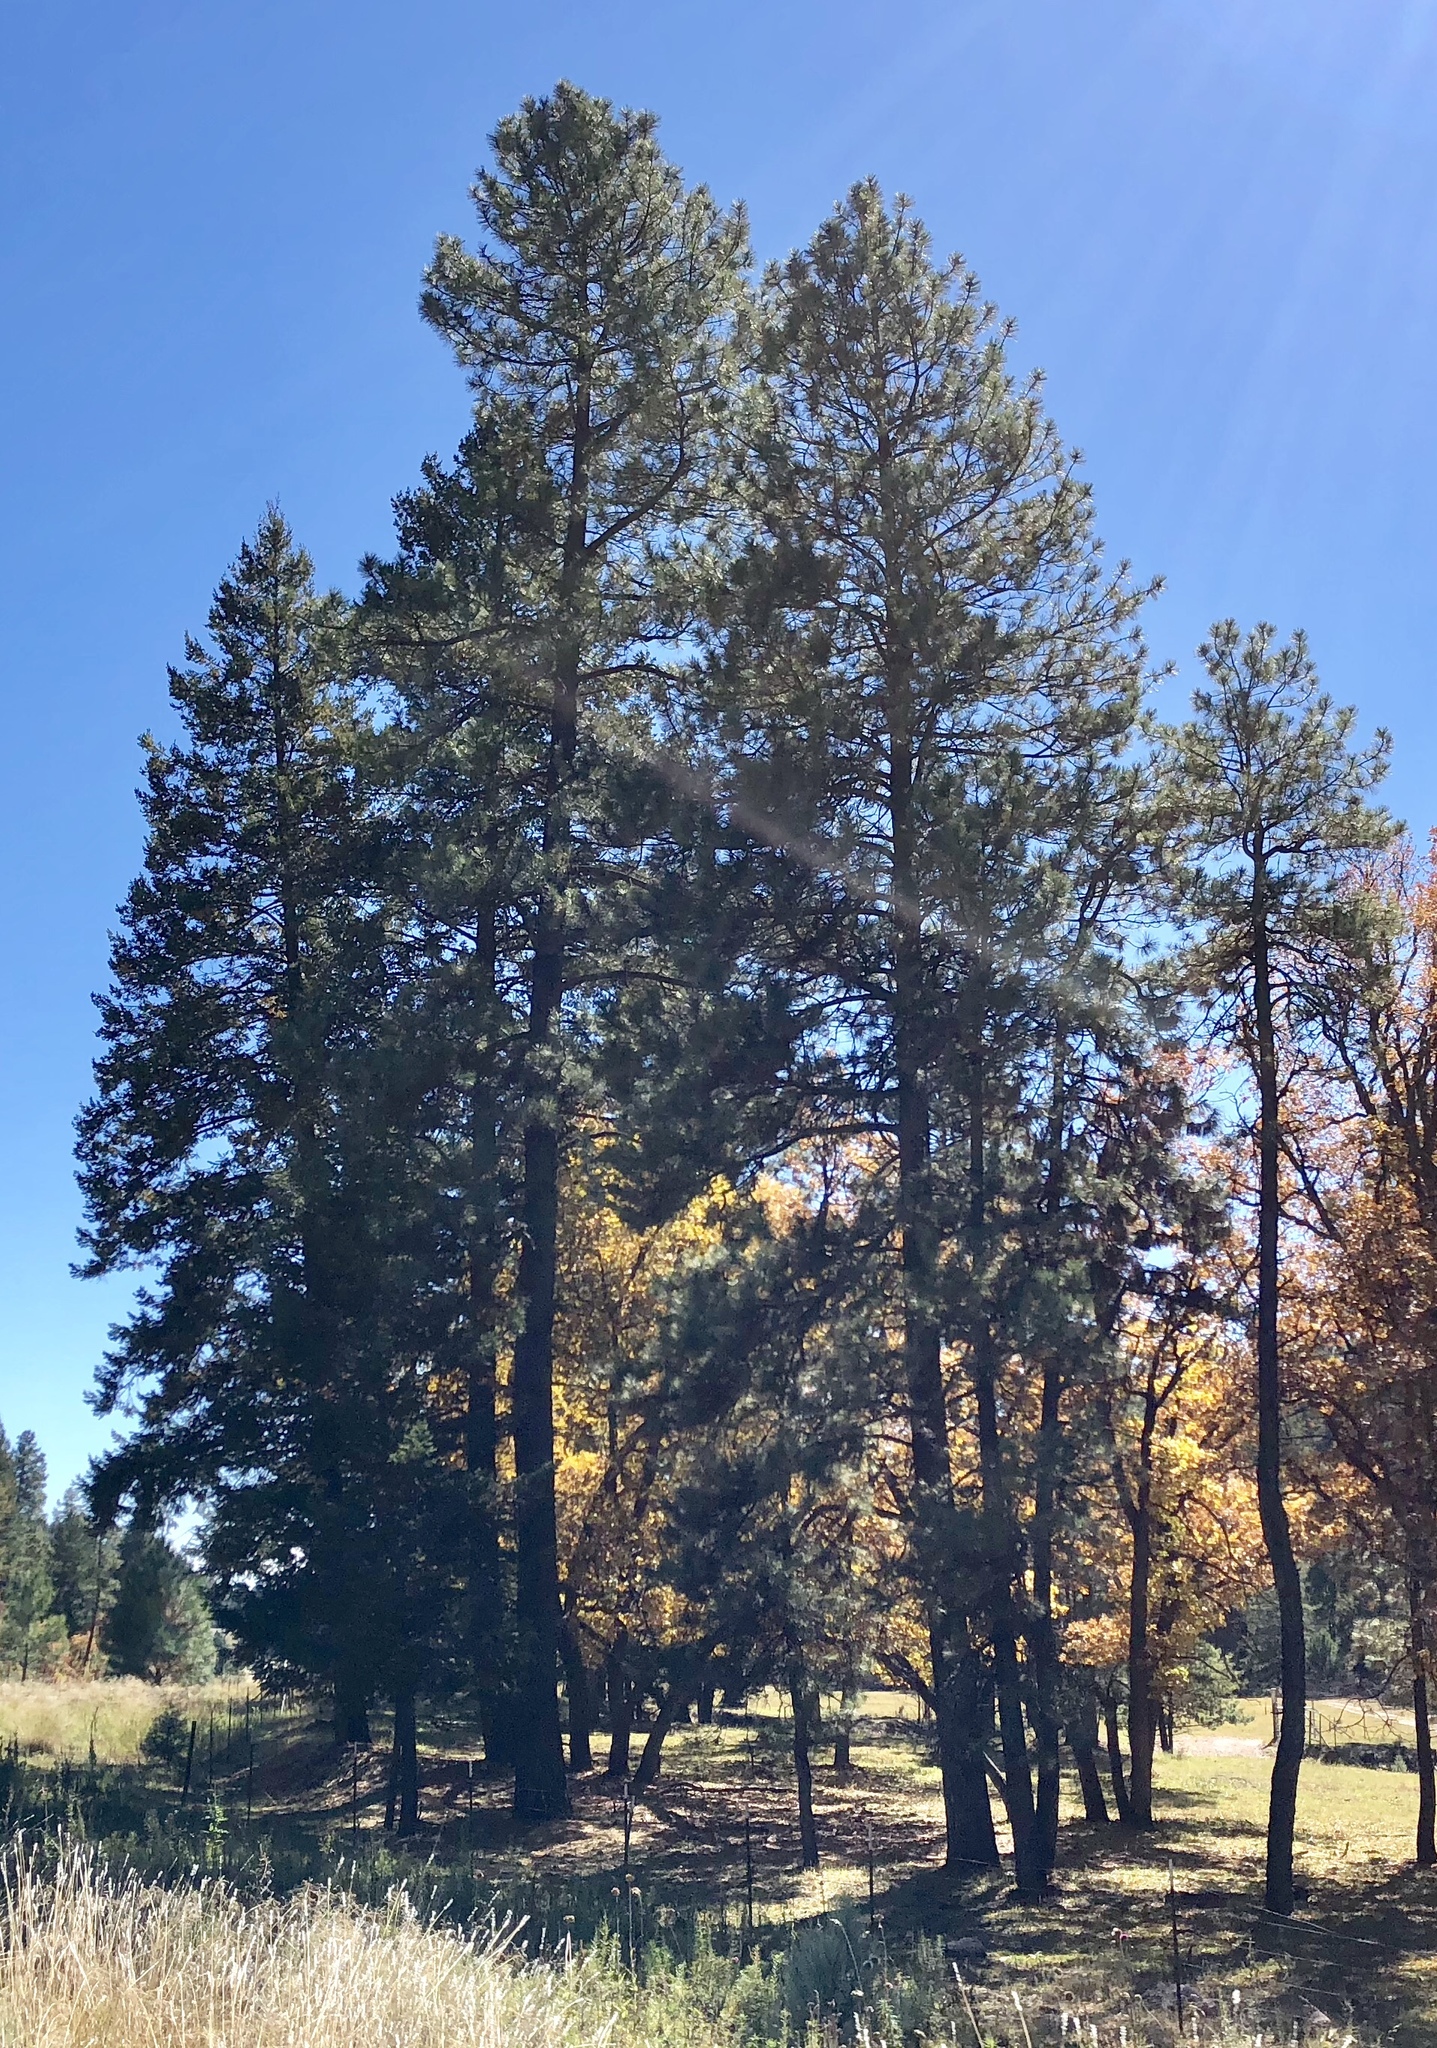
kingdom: Plantae
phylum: Tracheophyta
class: Pinopsida
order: Pinales
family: Pinaceae
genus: Pinus
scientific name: Pinus ponderosa
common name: Western yellow-pine
